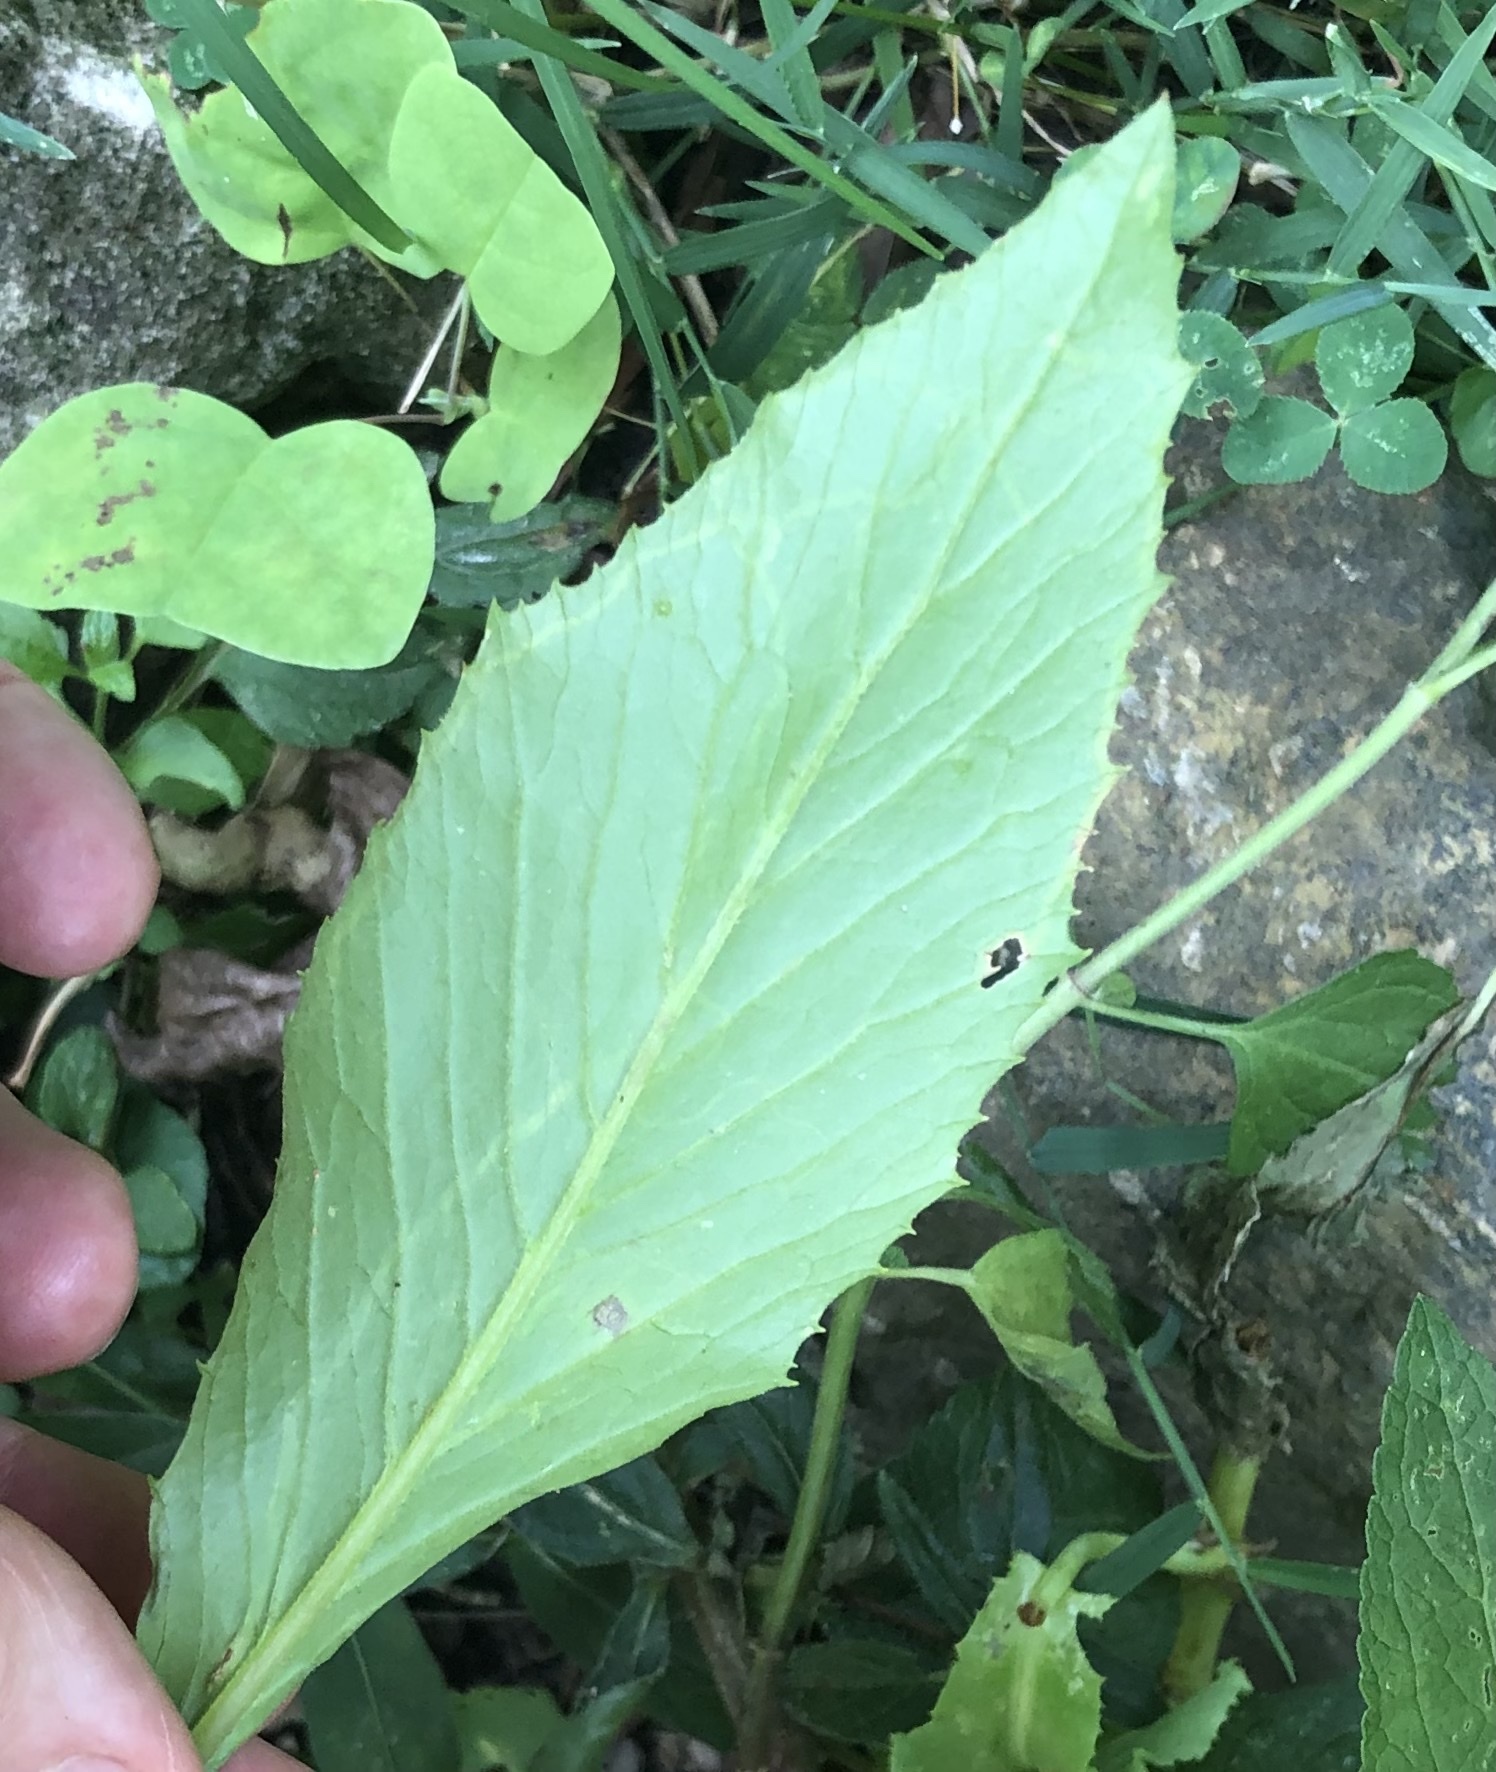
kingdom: Animalia
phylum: Arthropoda
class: Insecta
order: Lepidoptera
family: Gracillariidae
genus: Phyllocnistis
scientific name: Phyllocnistis insignis
